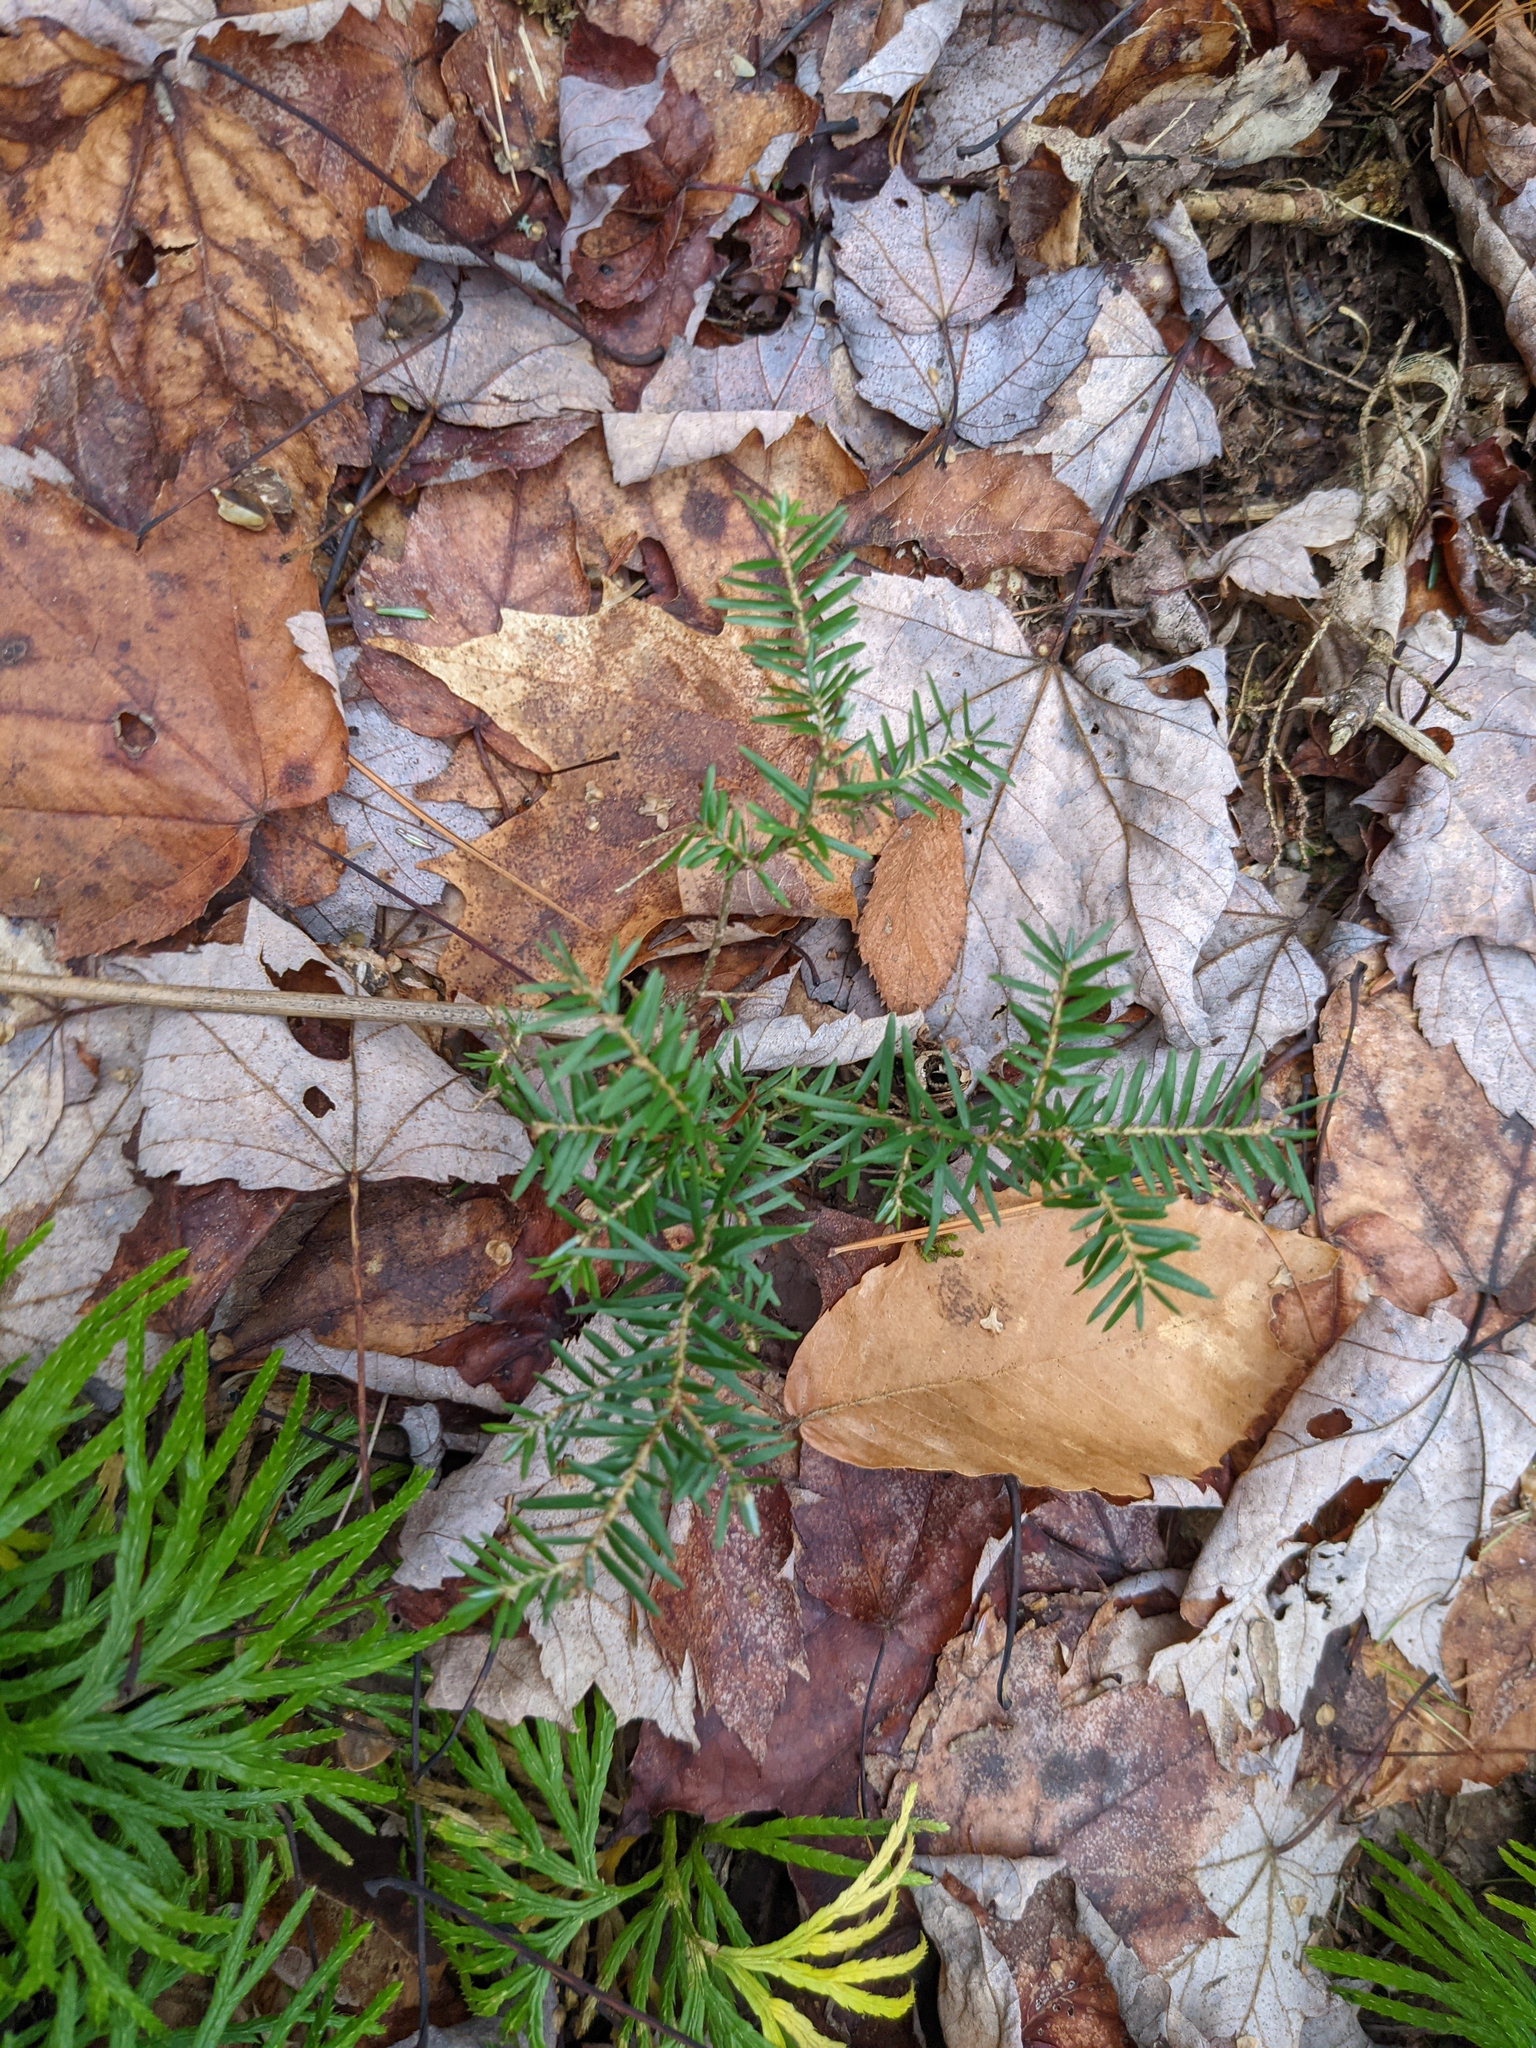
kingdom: Plantae
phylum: Tracheophyta
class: Pinopsida
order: Pinales
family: Pinaceae
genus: Tsuga
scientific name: Tsuga canadensis
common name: Eastern hemlock
